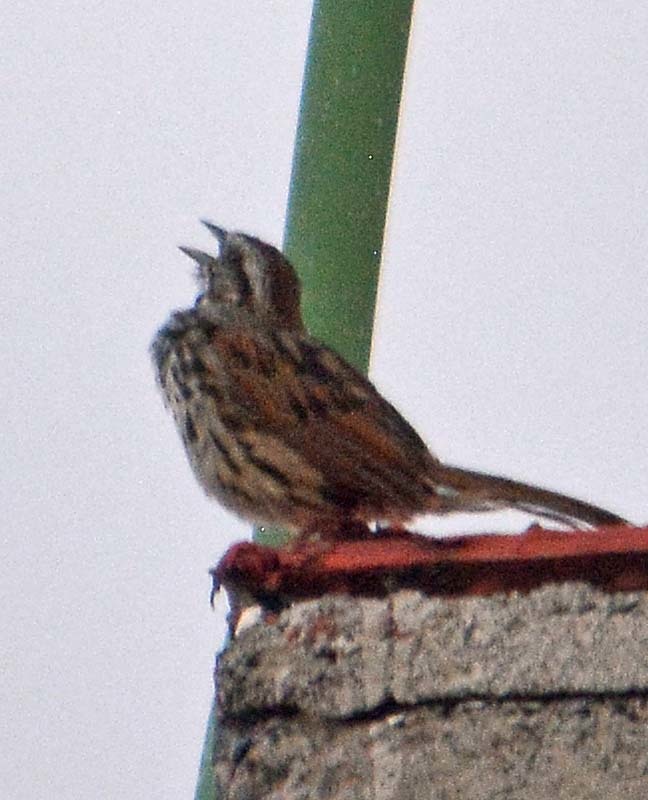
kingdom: Animalia
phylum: Chordata
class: Aves
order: Passeriformes
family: Passerellidae
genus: Melospiza
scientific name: Melospiza melodia
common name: Song sparrow
